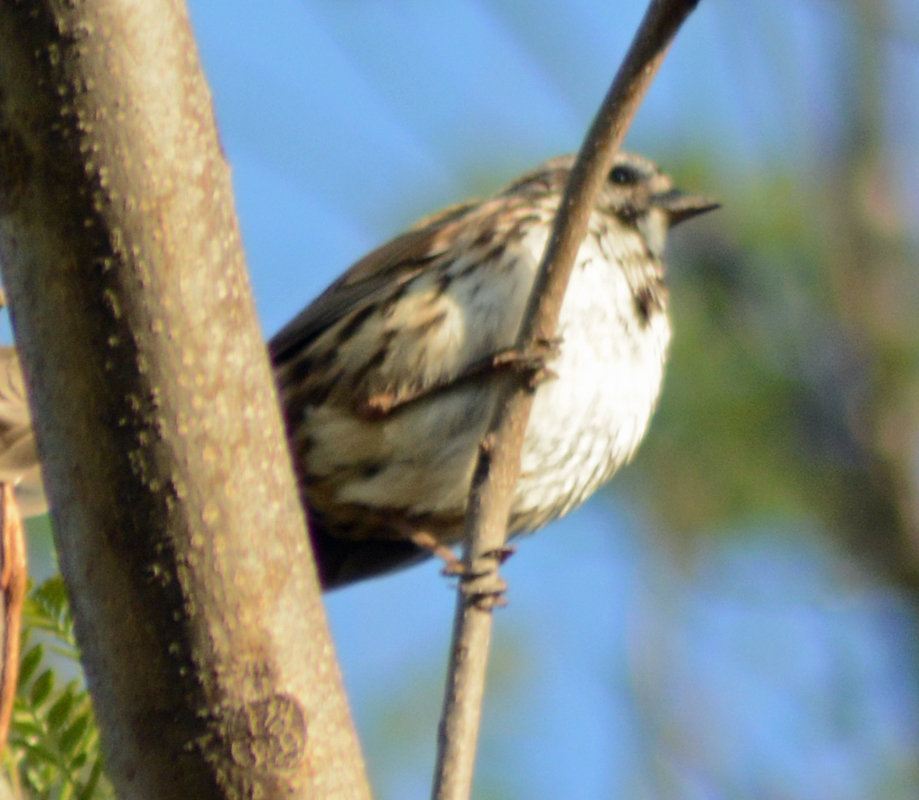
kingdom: Animalia
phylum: Chordata
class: Aves
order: Passeriformes
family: Passerellidae
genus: Melospiza
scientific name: Melospiza melodia
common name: Song sparrow
